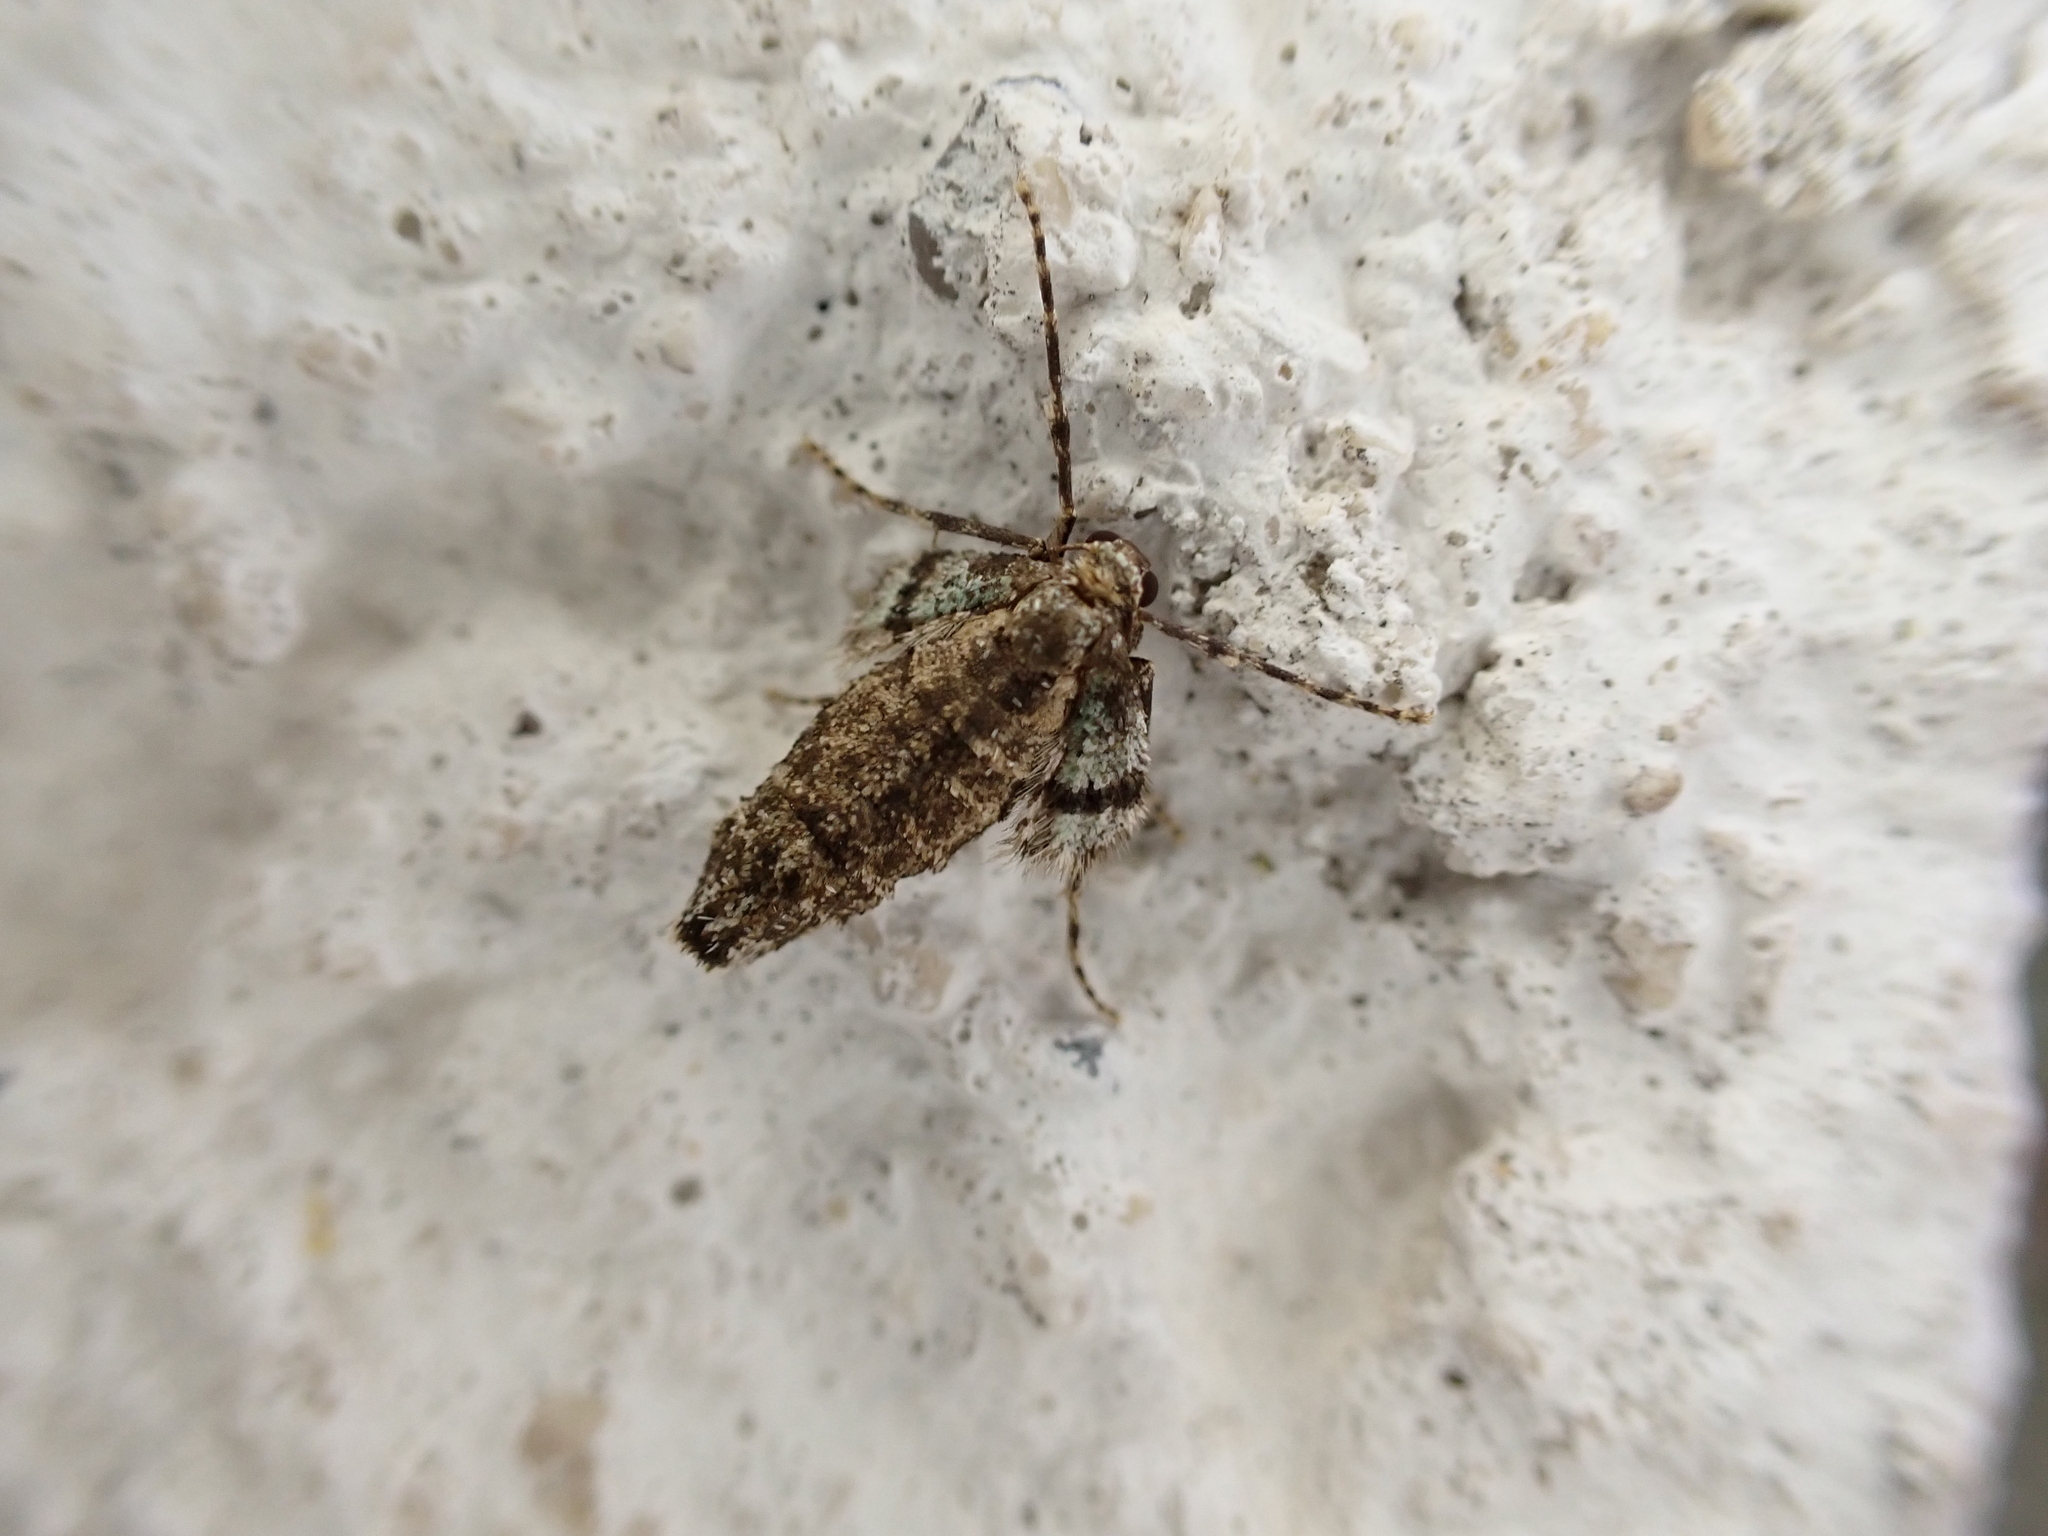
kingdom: Animalia
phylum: Arthropoda
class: Insecta
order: Lepidoptera
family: Geometridae
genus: Operophtera
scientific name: Operophtera brumata
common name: Winter moth
